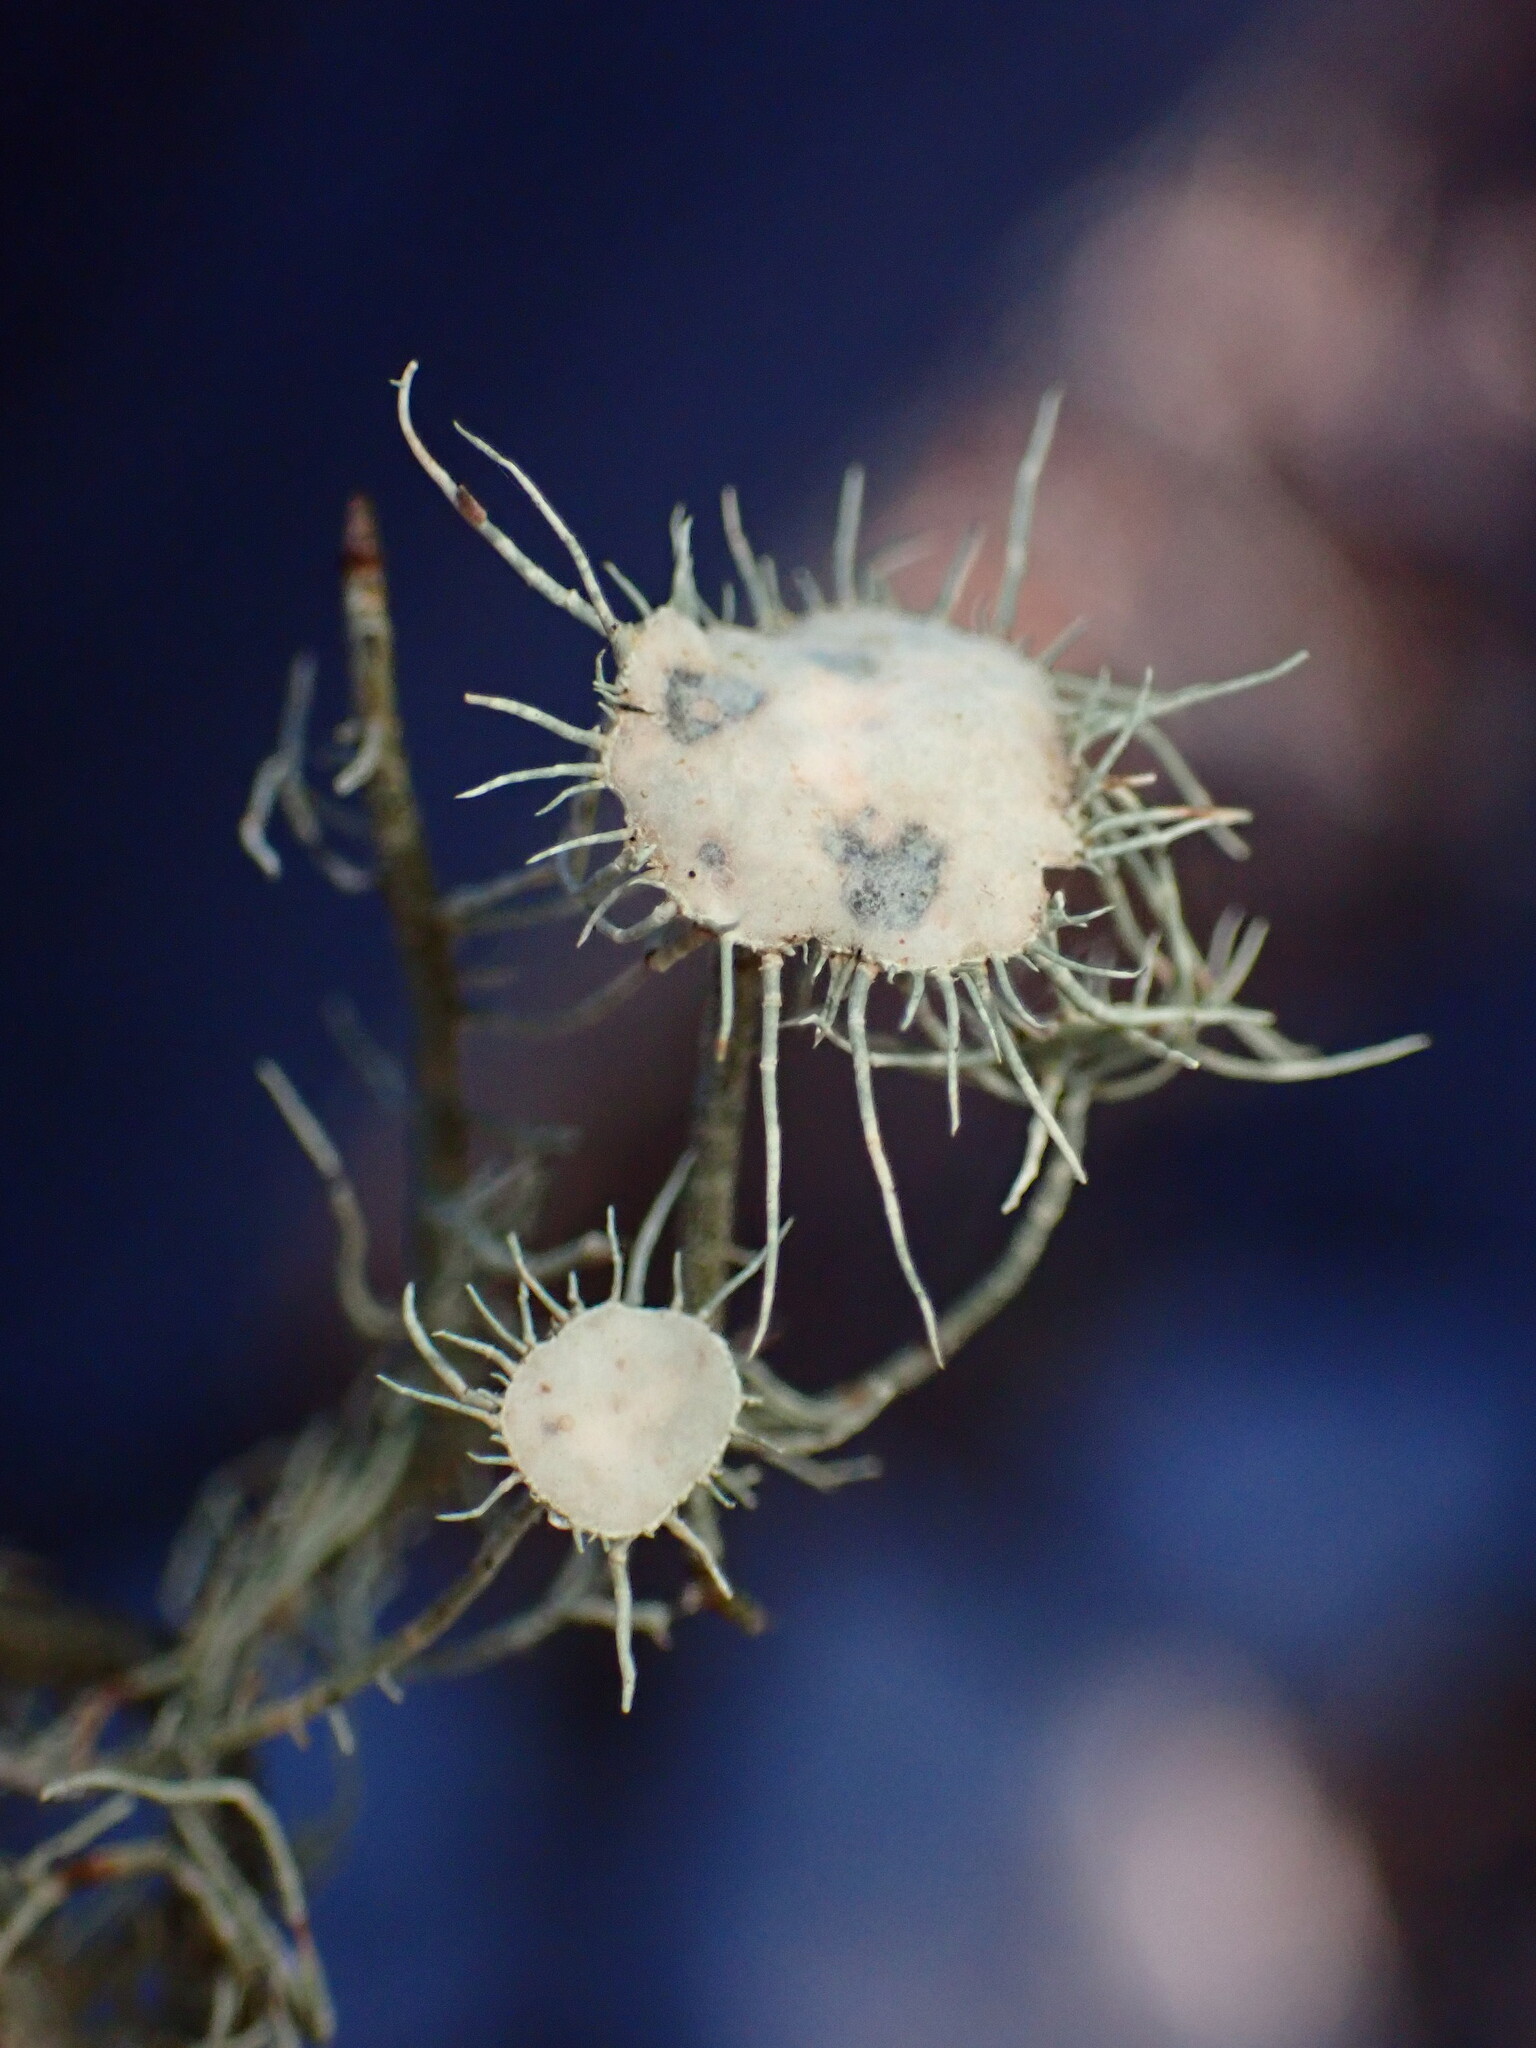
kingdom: Fungi
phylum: Ascomycota
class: Lecanoromycetes
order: Lecanorales
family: Parmeliaceae
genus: Usnea
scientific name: Usnea intermedia
